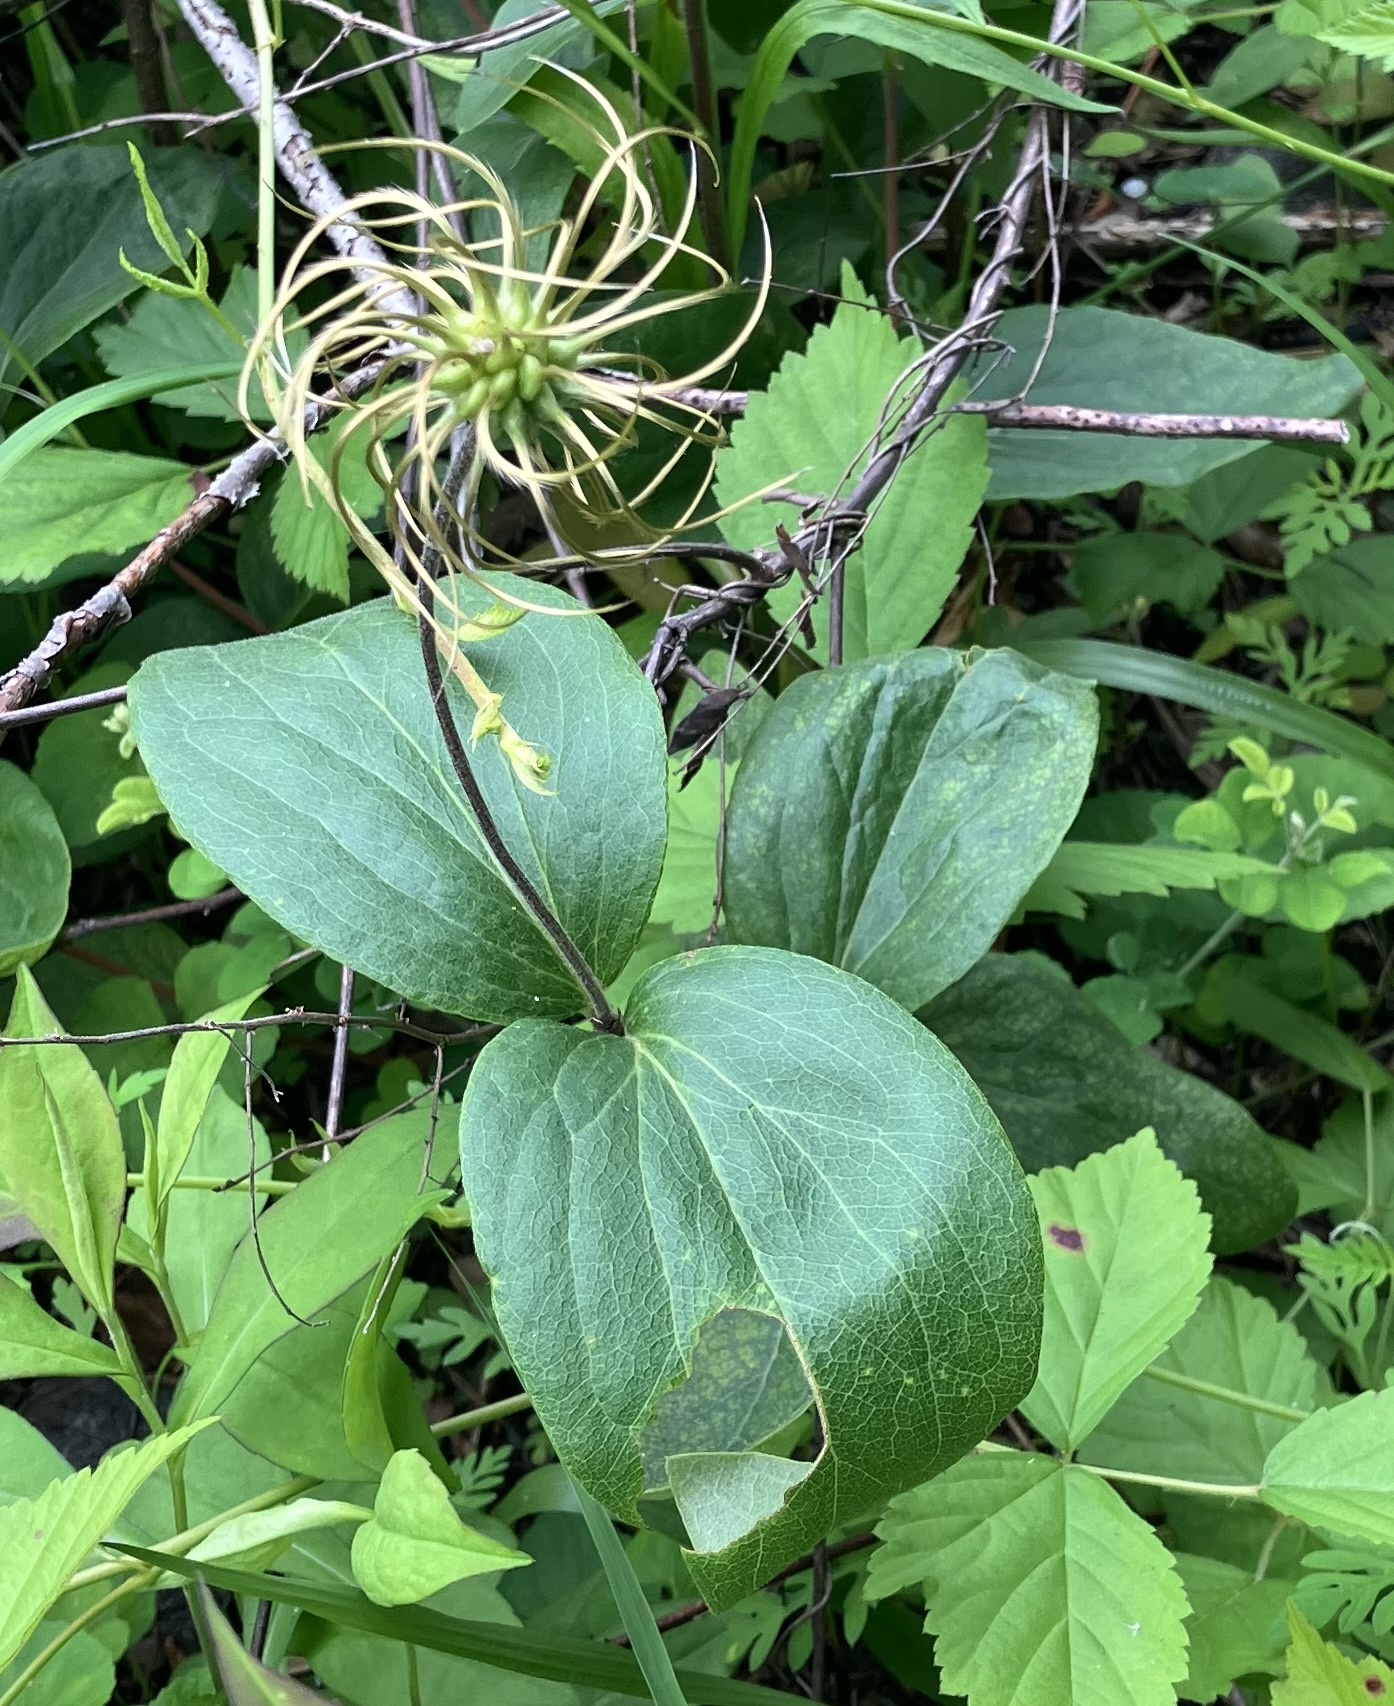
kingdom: Plantae
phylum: Tracheophyta
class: Magnoliopsida
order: Ranunculales
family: Ranunculaceae
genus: Clematis
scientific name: Clematis ochroleuca
